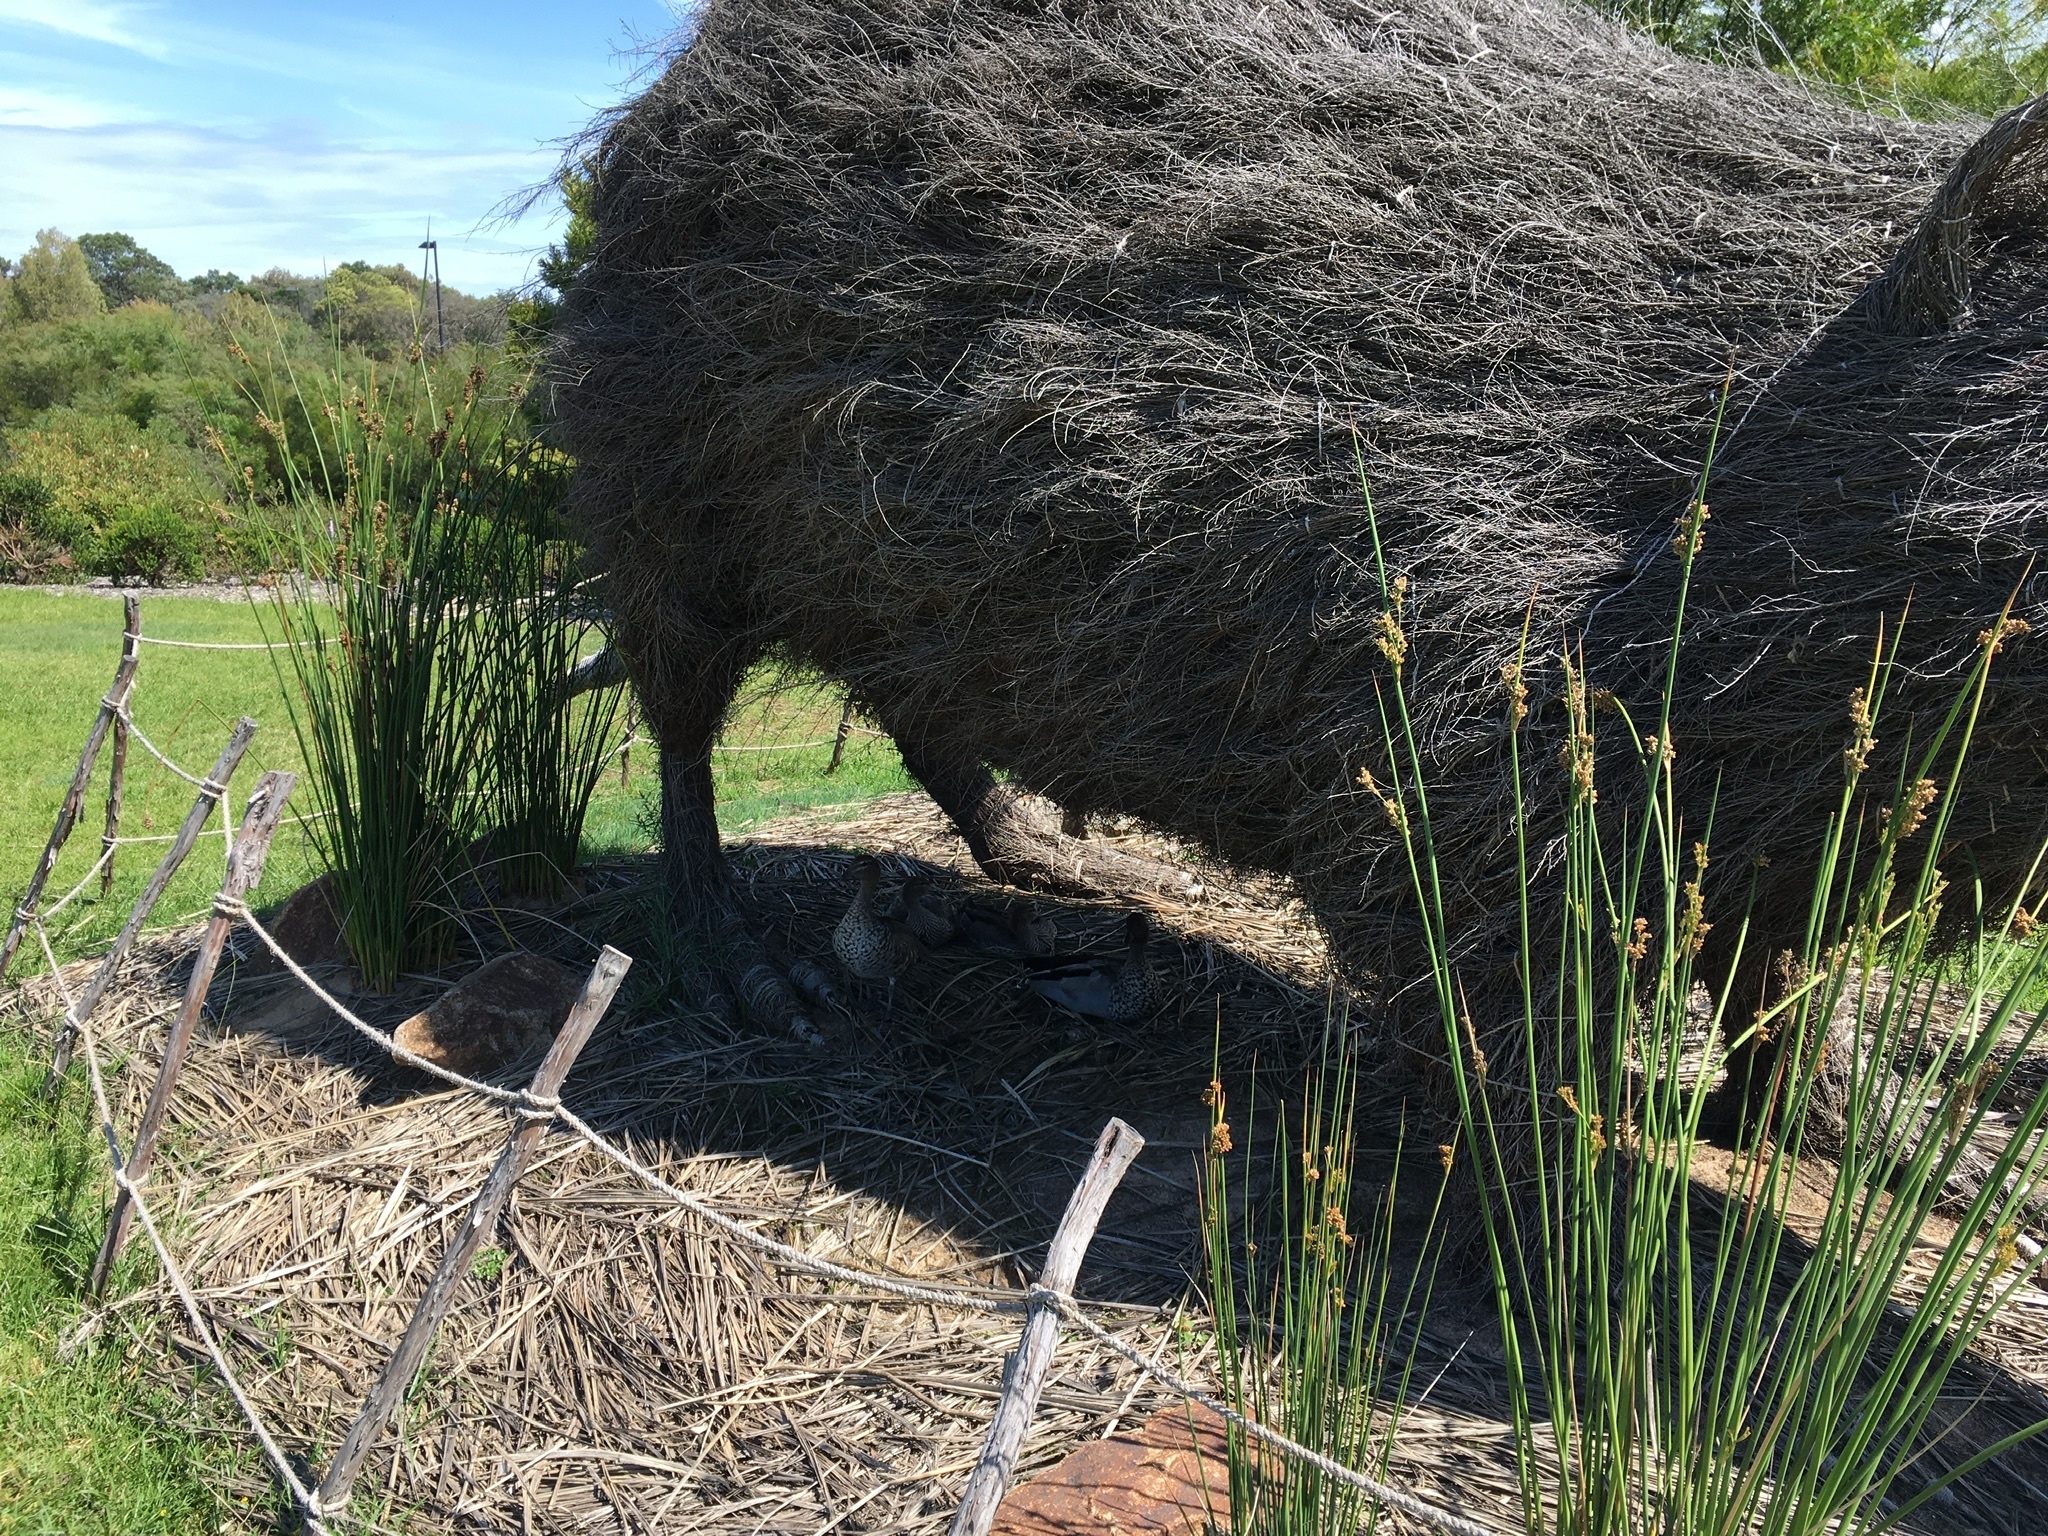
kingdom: Animalia
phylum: Chordata
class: Aves
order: Anseriformes
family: Anatidae
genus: Chenonetta
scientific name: Chenonetta jubata
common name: Maned duck
